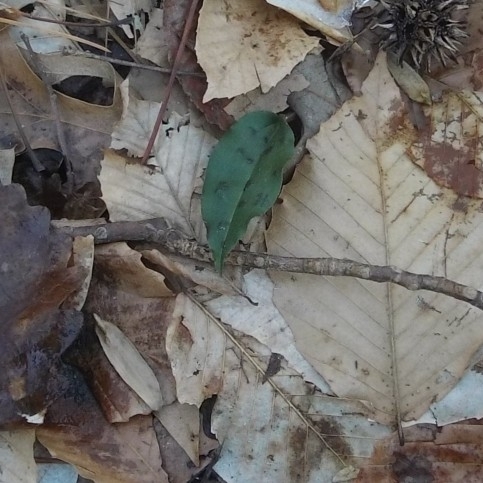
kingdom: Plantae
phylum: Tracheophyta
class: Liliopsida
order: Asparagales
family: Orchidaceae
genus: Tipularia
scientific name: Tipularia discolor
